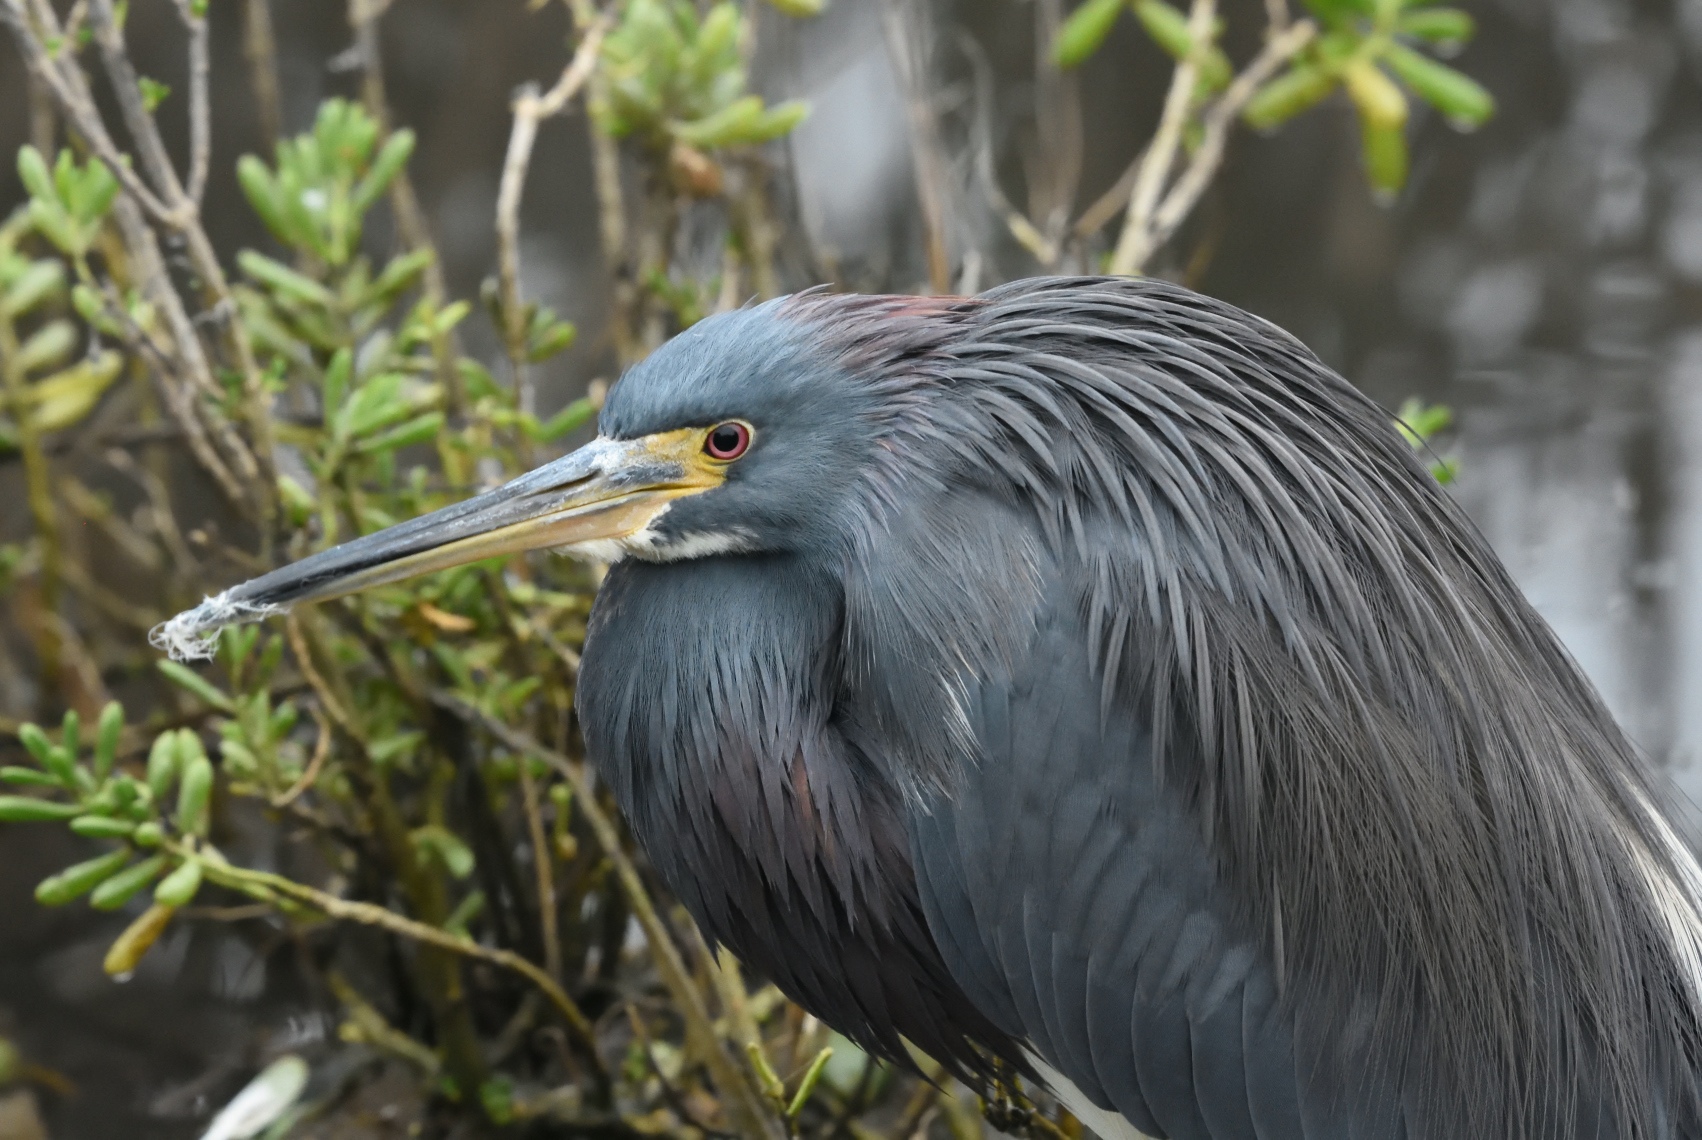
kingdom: Animalia
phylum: Chordata
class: Aves
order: Pelecaniformes
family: Ardeidae
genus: Egretta
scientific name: Egretta tricolor
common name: Tricolored heron
